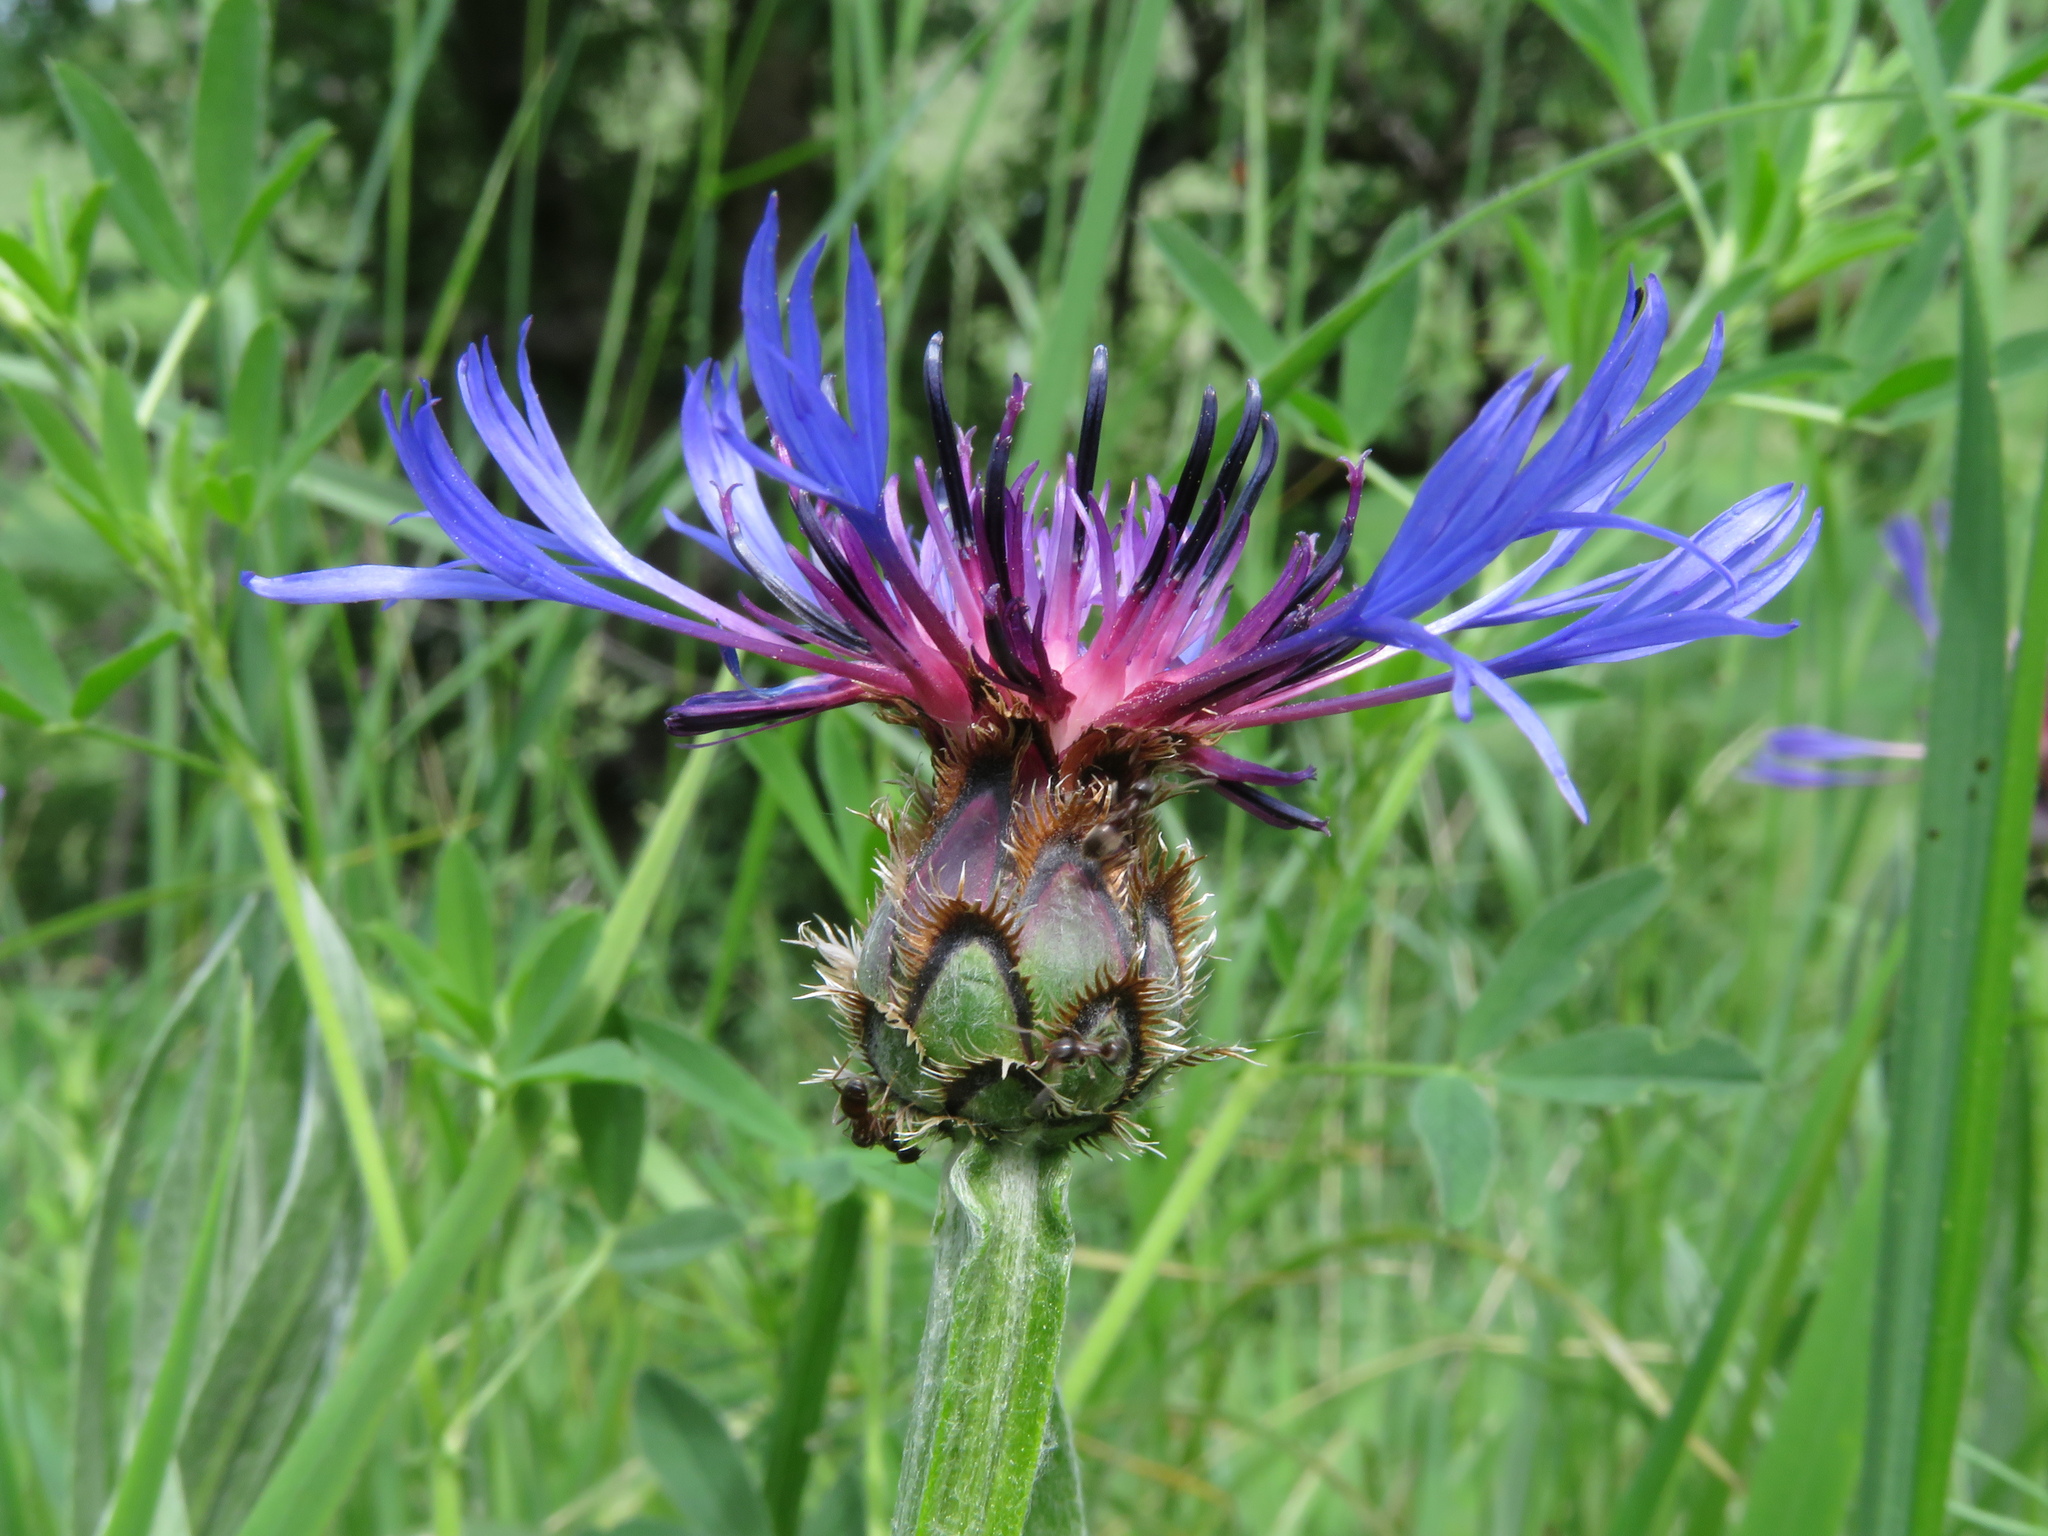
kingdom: Plantae
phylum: Tracheophyta
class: Magnoliopsida
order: Asterales
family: Asteraceae
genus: Centaurea
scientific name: Centaurea triumfettii
